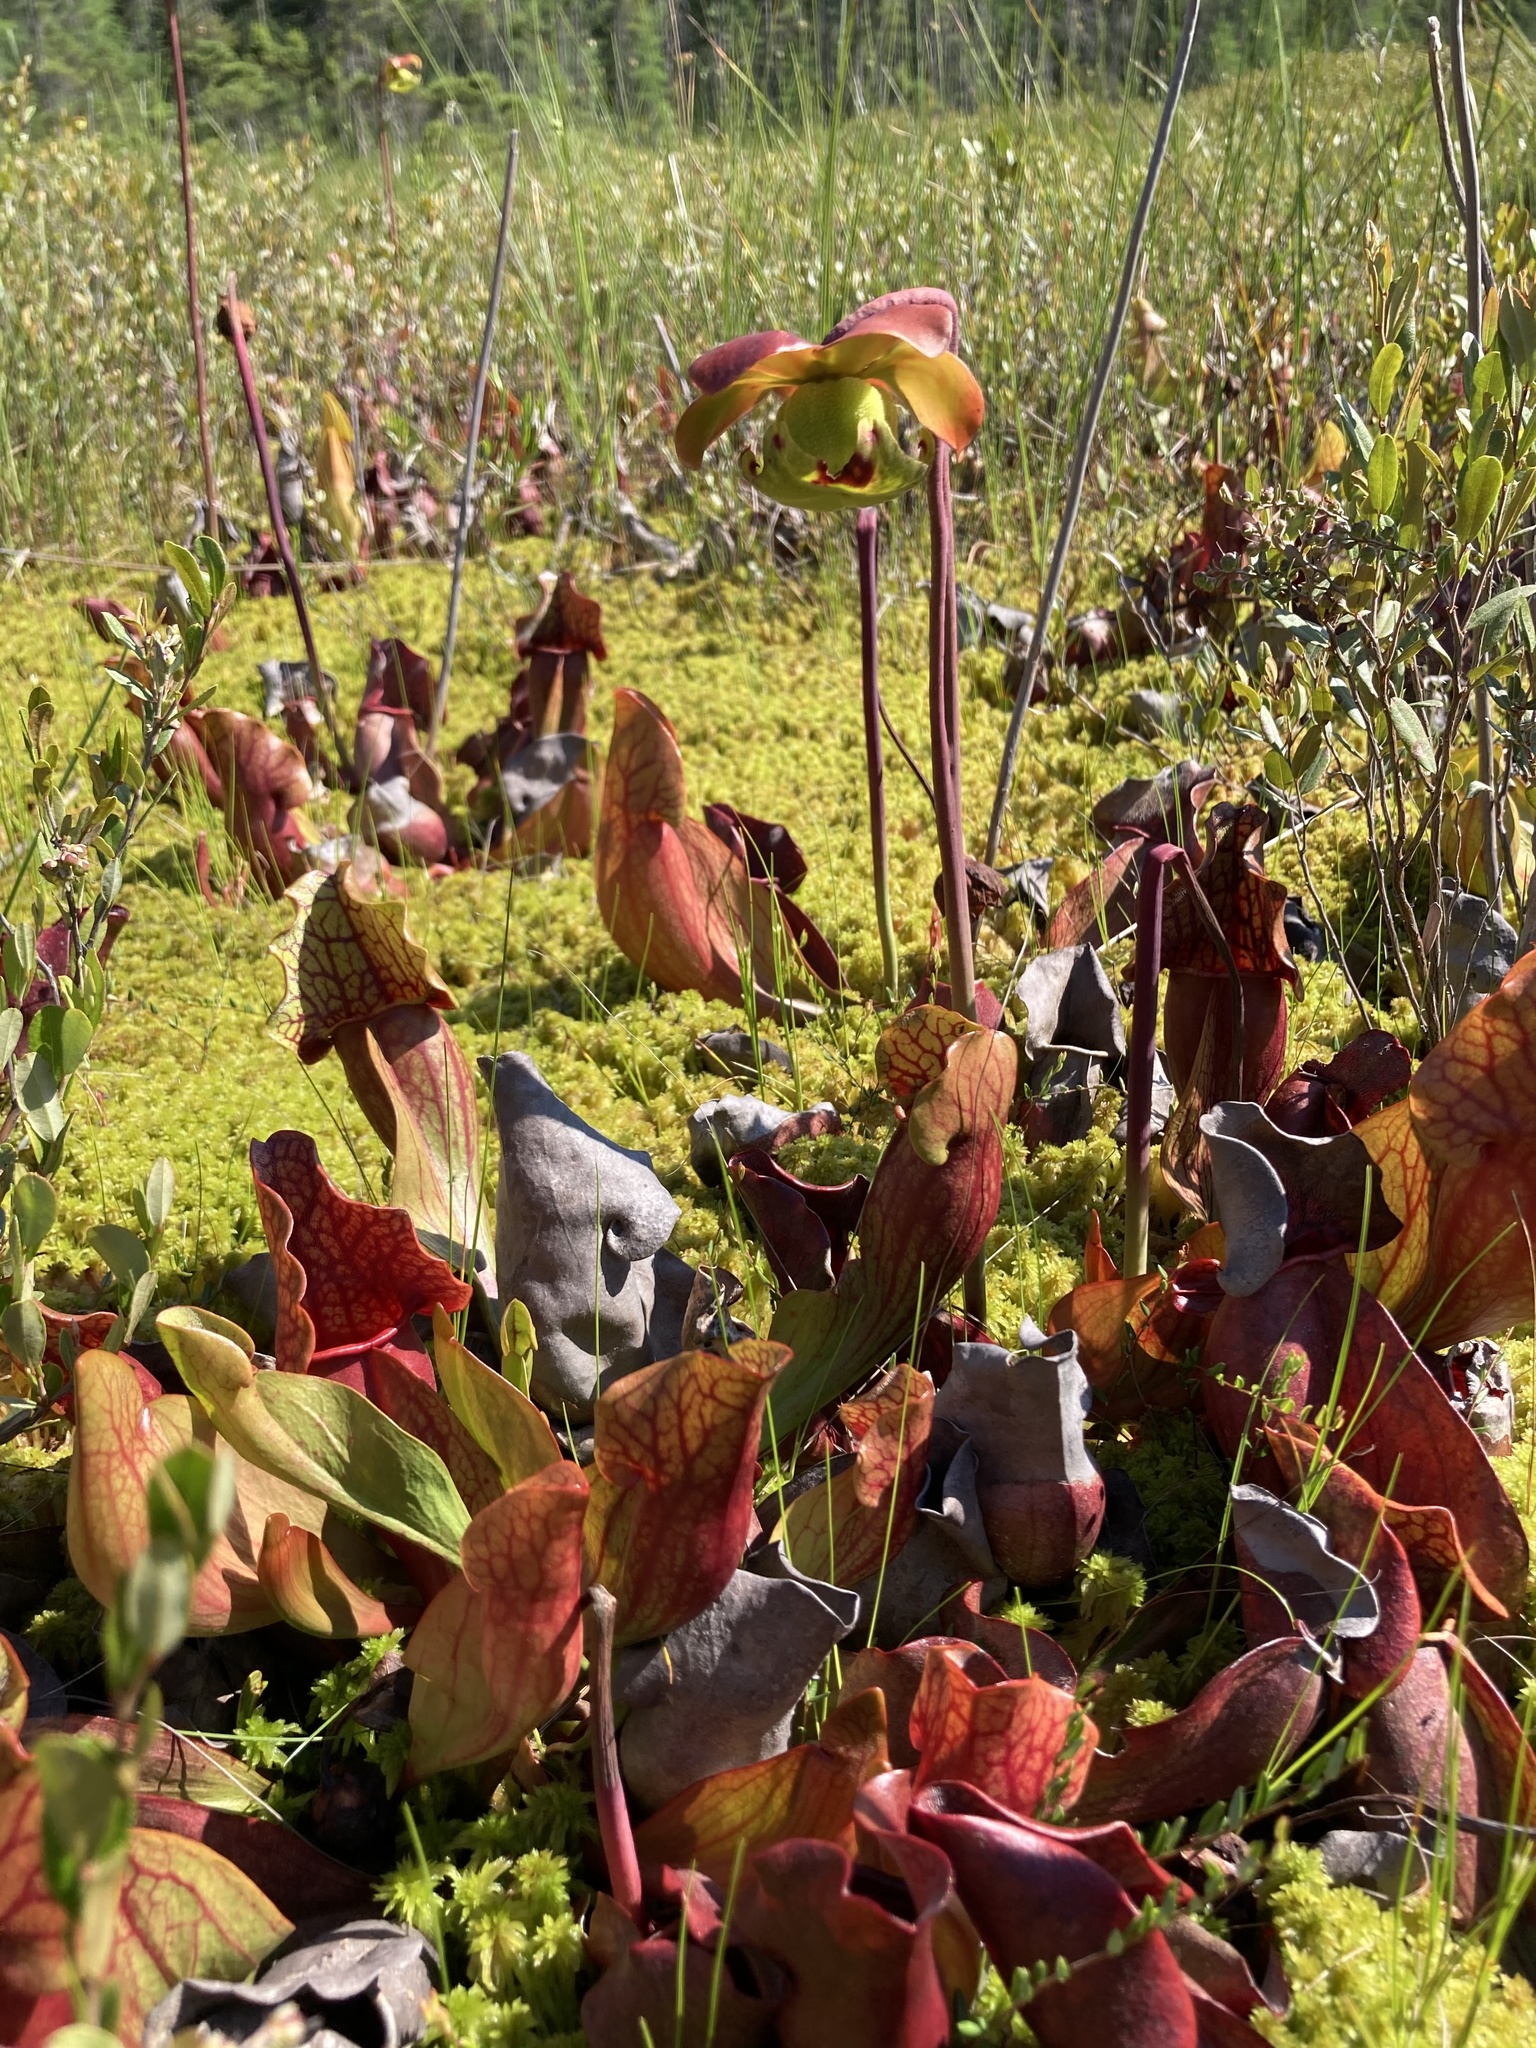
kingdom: Plantae
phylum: Tracheophyta
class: Magnoliopsida
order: Ericales
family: Sarraceniaceae
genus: Sarracenia
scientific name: Sarracenia purpurea
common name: Pitcherplant
